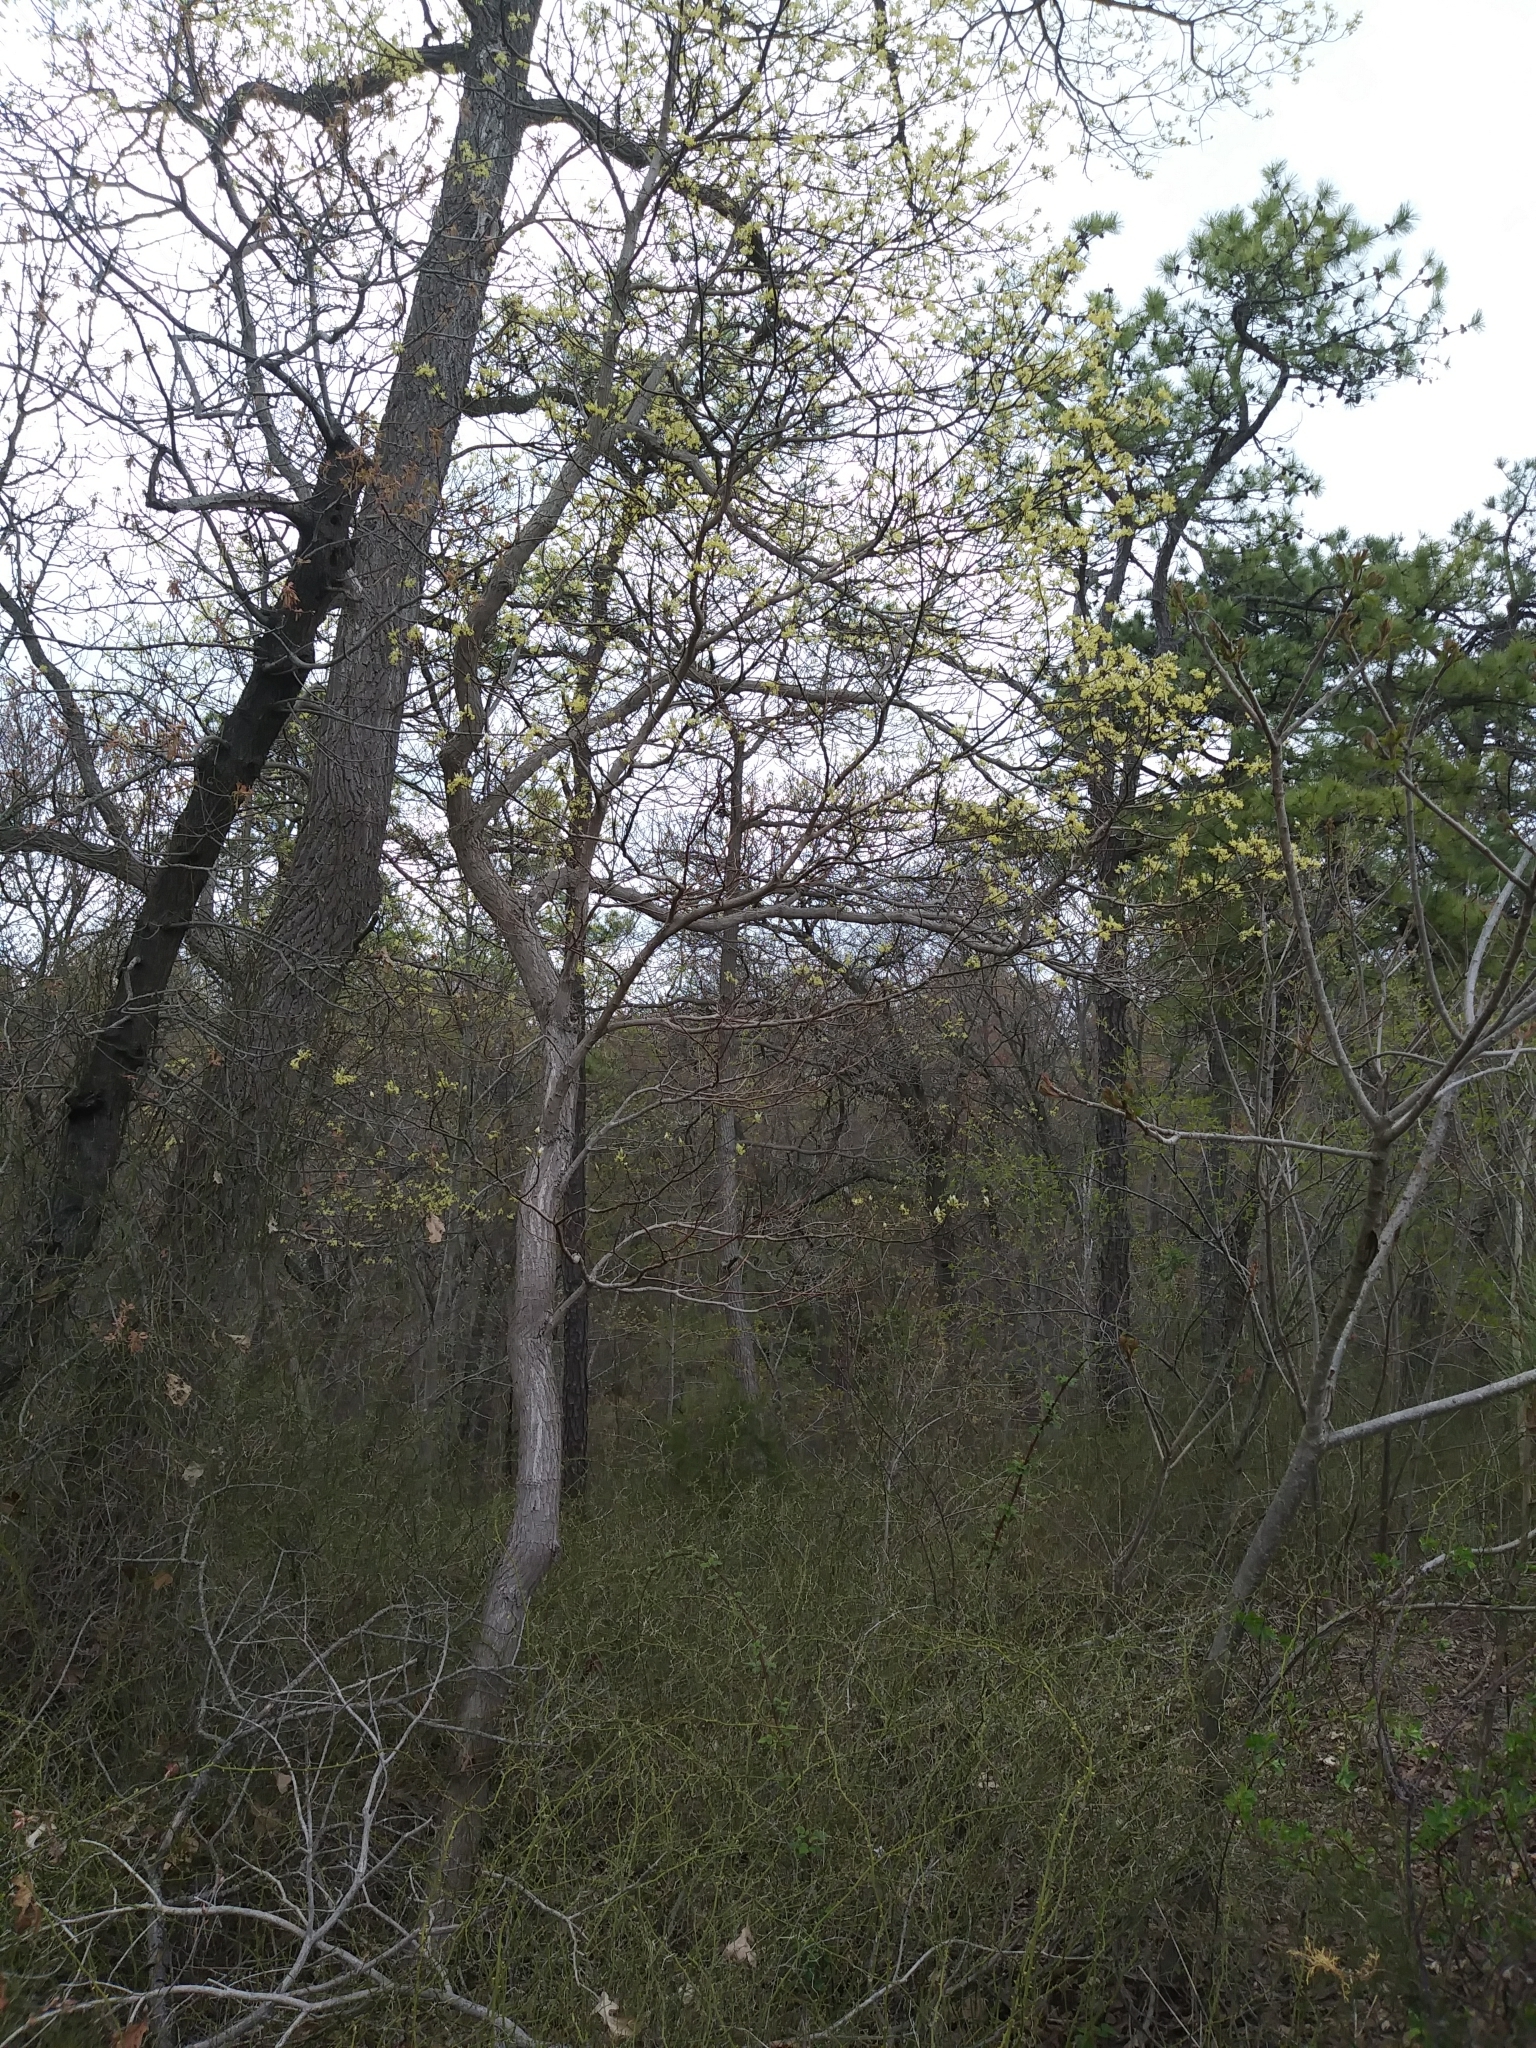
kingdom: Plantae
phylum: Tracheophyta
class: Magnoliopsida
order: Laurales
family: Lauraceae
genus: Sassafras
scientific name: Sassafras albidum
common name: Sassafras
